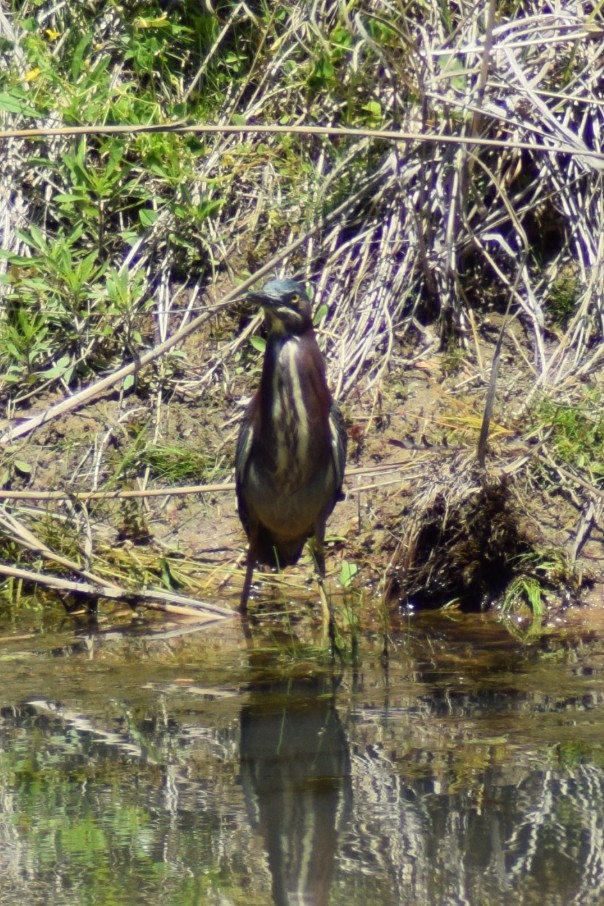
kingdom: Animalia
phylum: Chordata
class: Aves
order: Pelecaniformes
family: Ardeidae
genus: Butorides
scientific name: Butorides virescens
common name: Green heron
